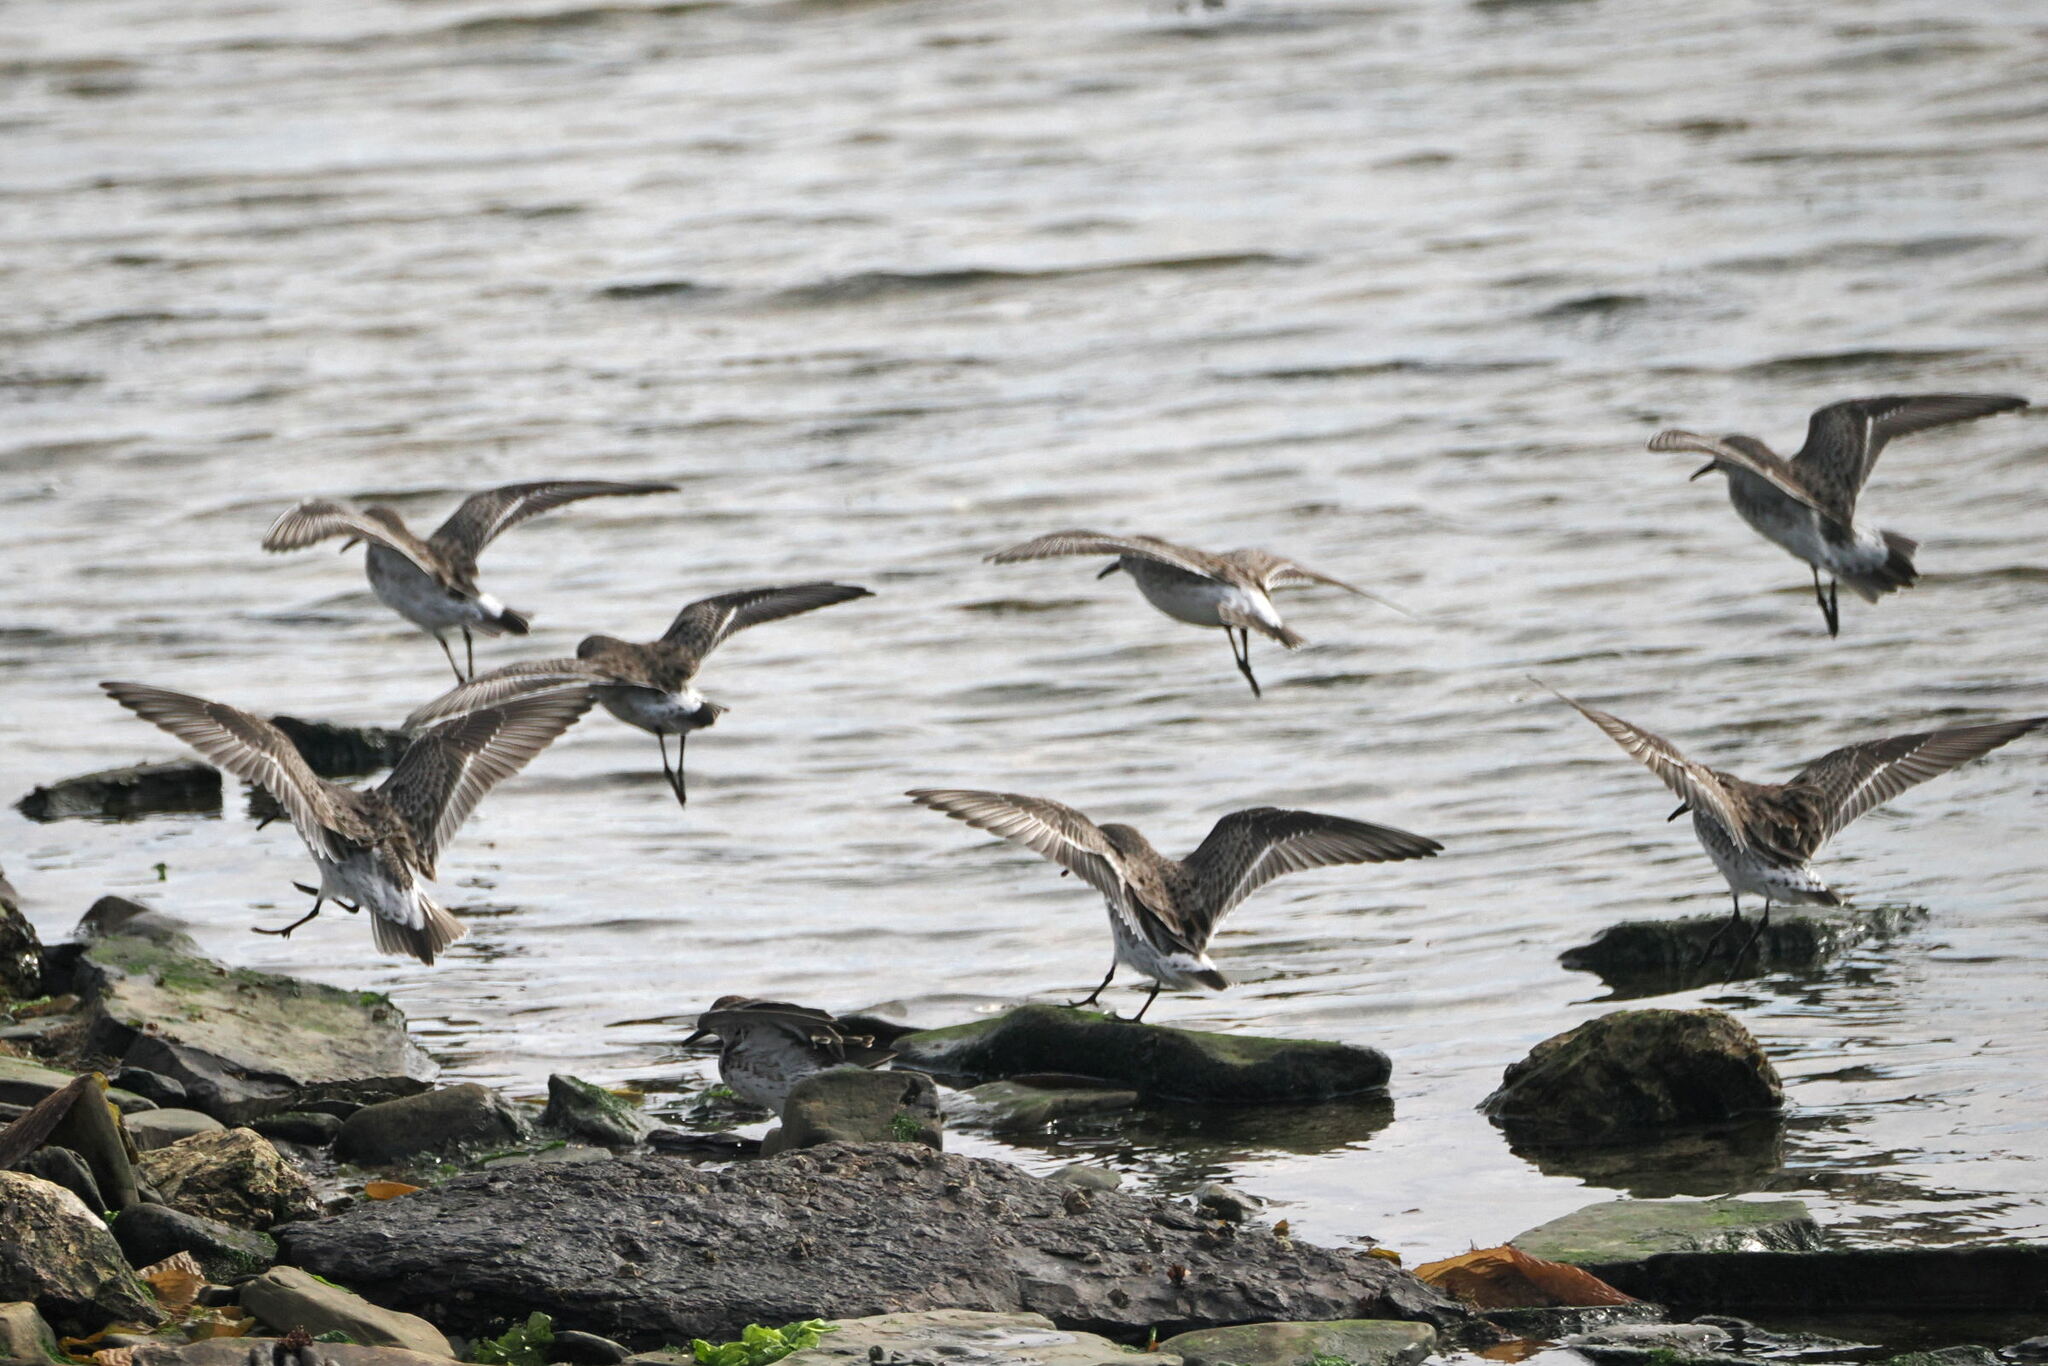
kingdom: Animalia
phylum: Chordata
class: Aves
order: Charadriiformes
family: Scolopacidae
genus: Calidris
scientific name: Calidris fuscicollis
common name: White-rumped sandpiper
